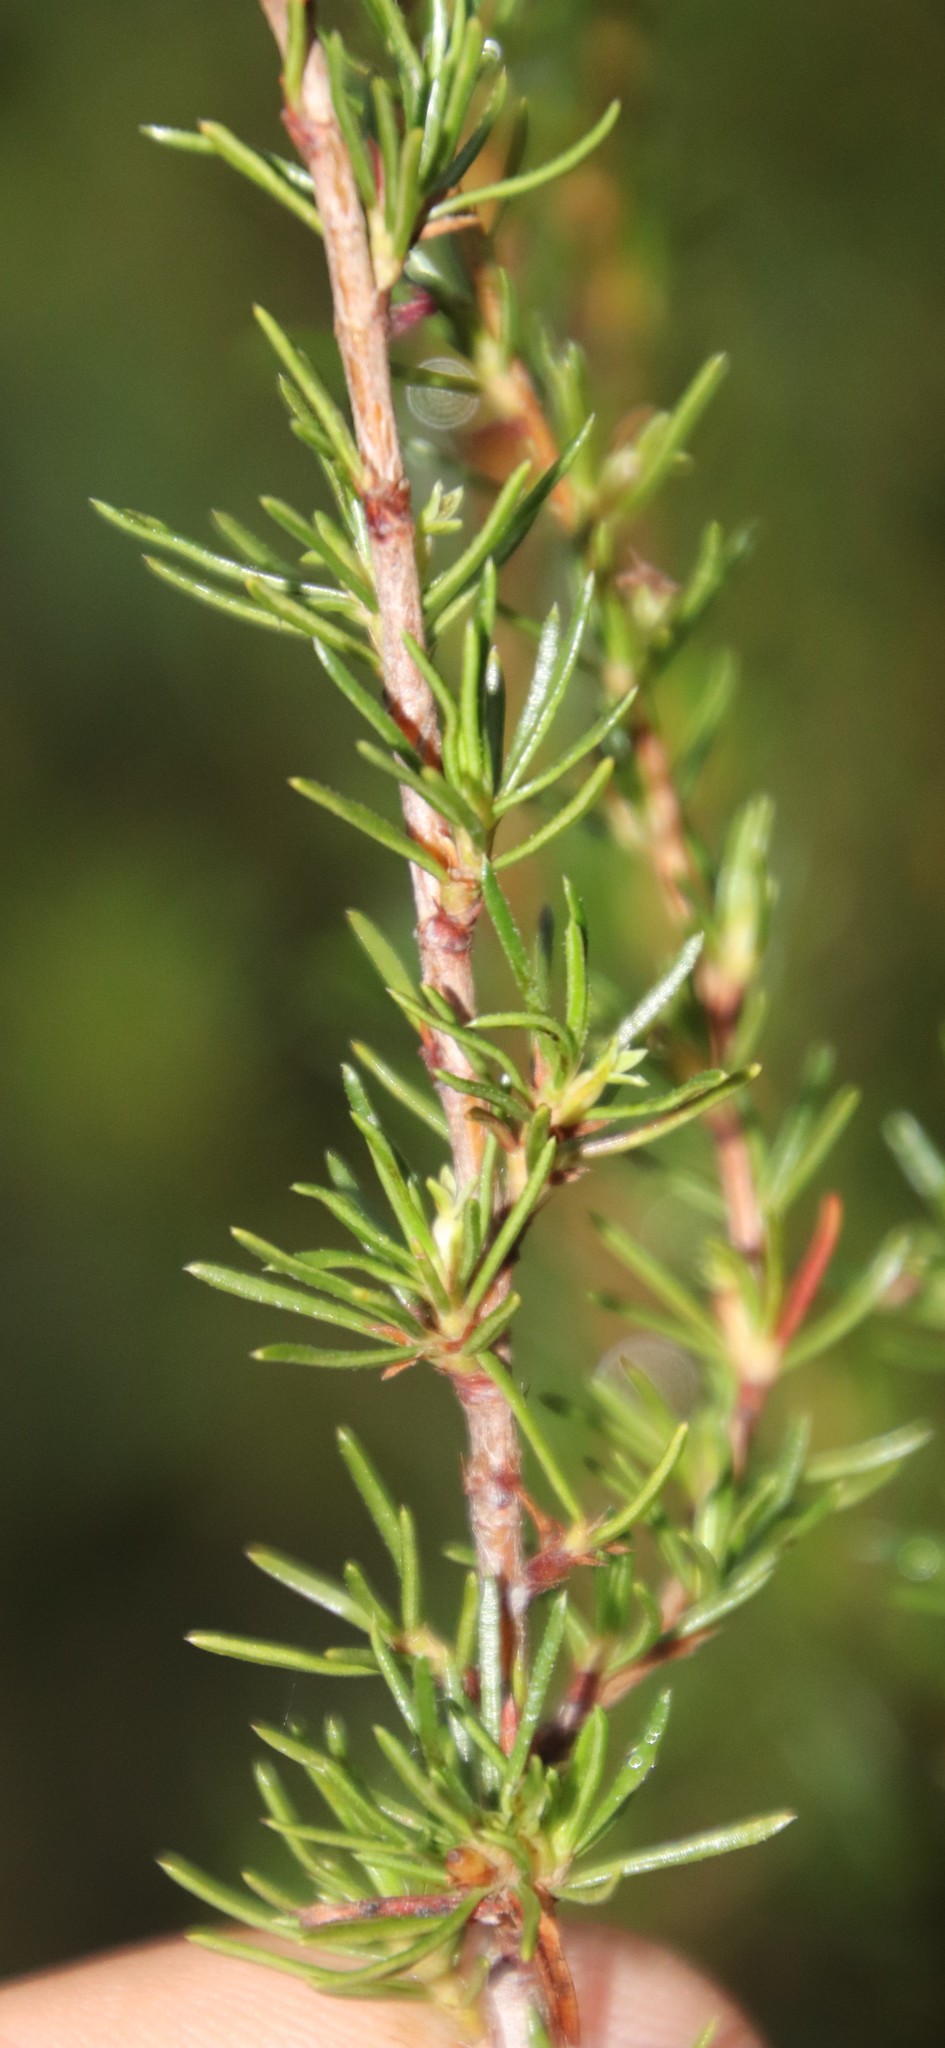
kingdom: Plantae
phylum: Tracheophyta
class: Magnoliopsida
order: Rosales
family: Rosaceae
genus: Cliffortia
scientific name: Cliffortia repens
